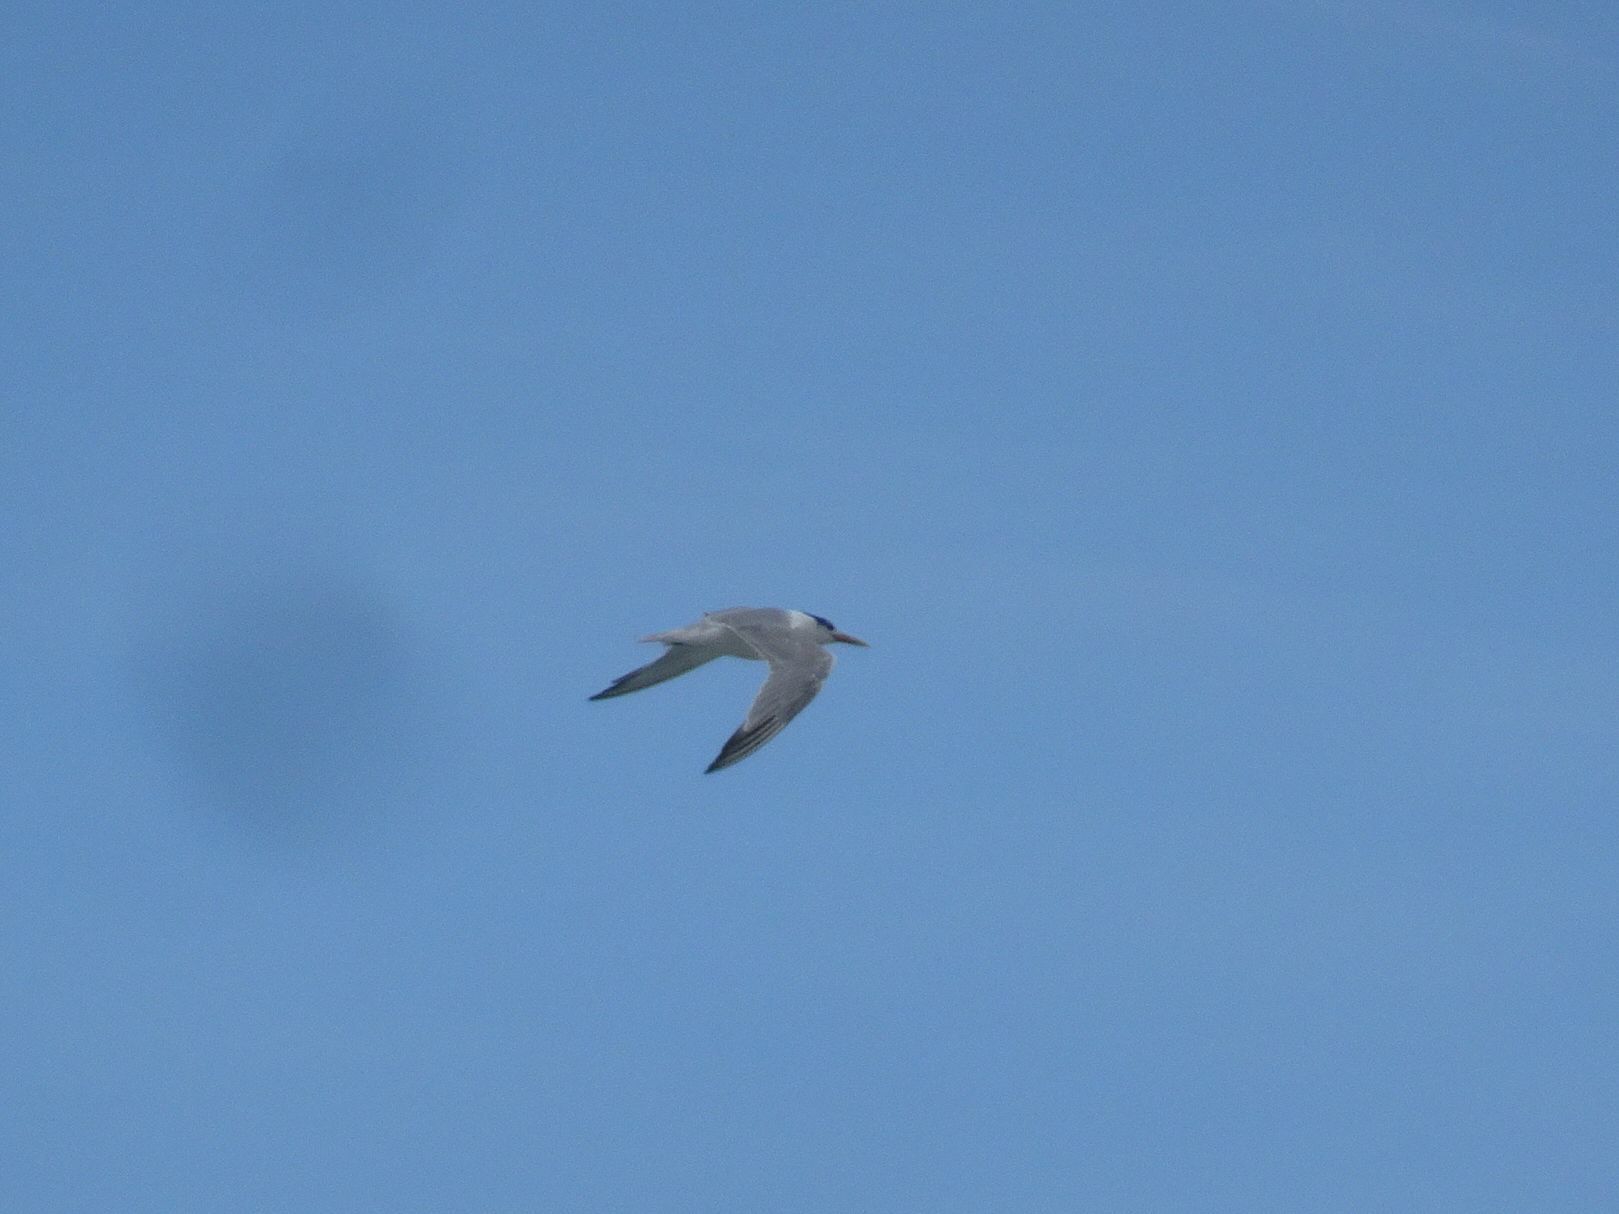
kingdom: Animalia
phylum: Chordata
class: Aves
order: Charadriiformes
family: Laridae
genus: Thalasseus
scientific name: Thalasseus bergii
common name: Greater crested tern
